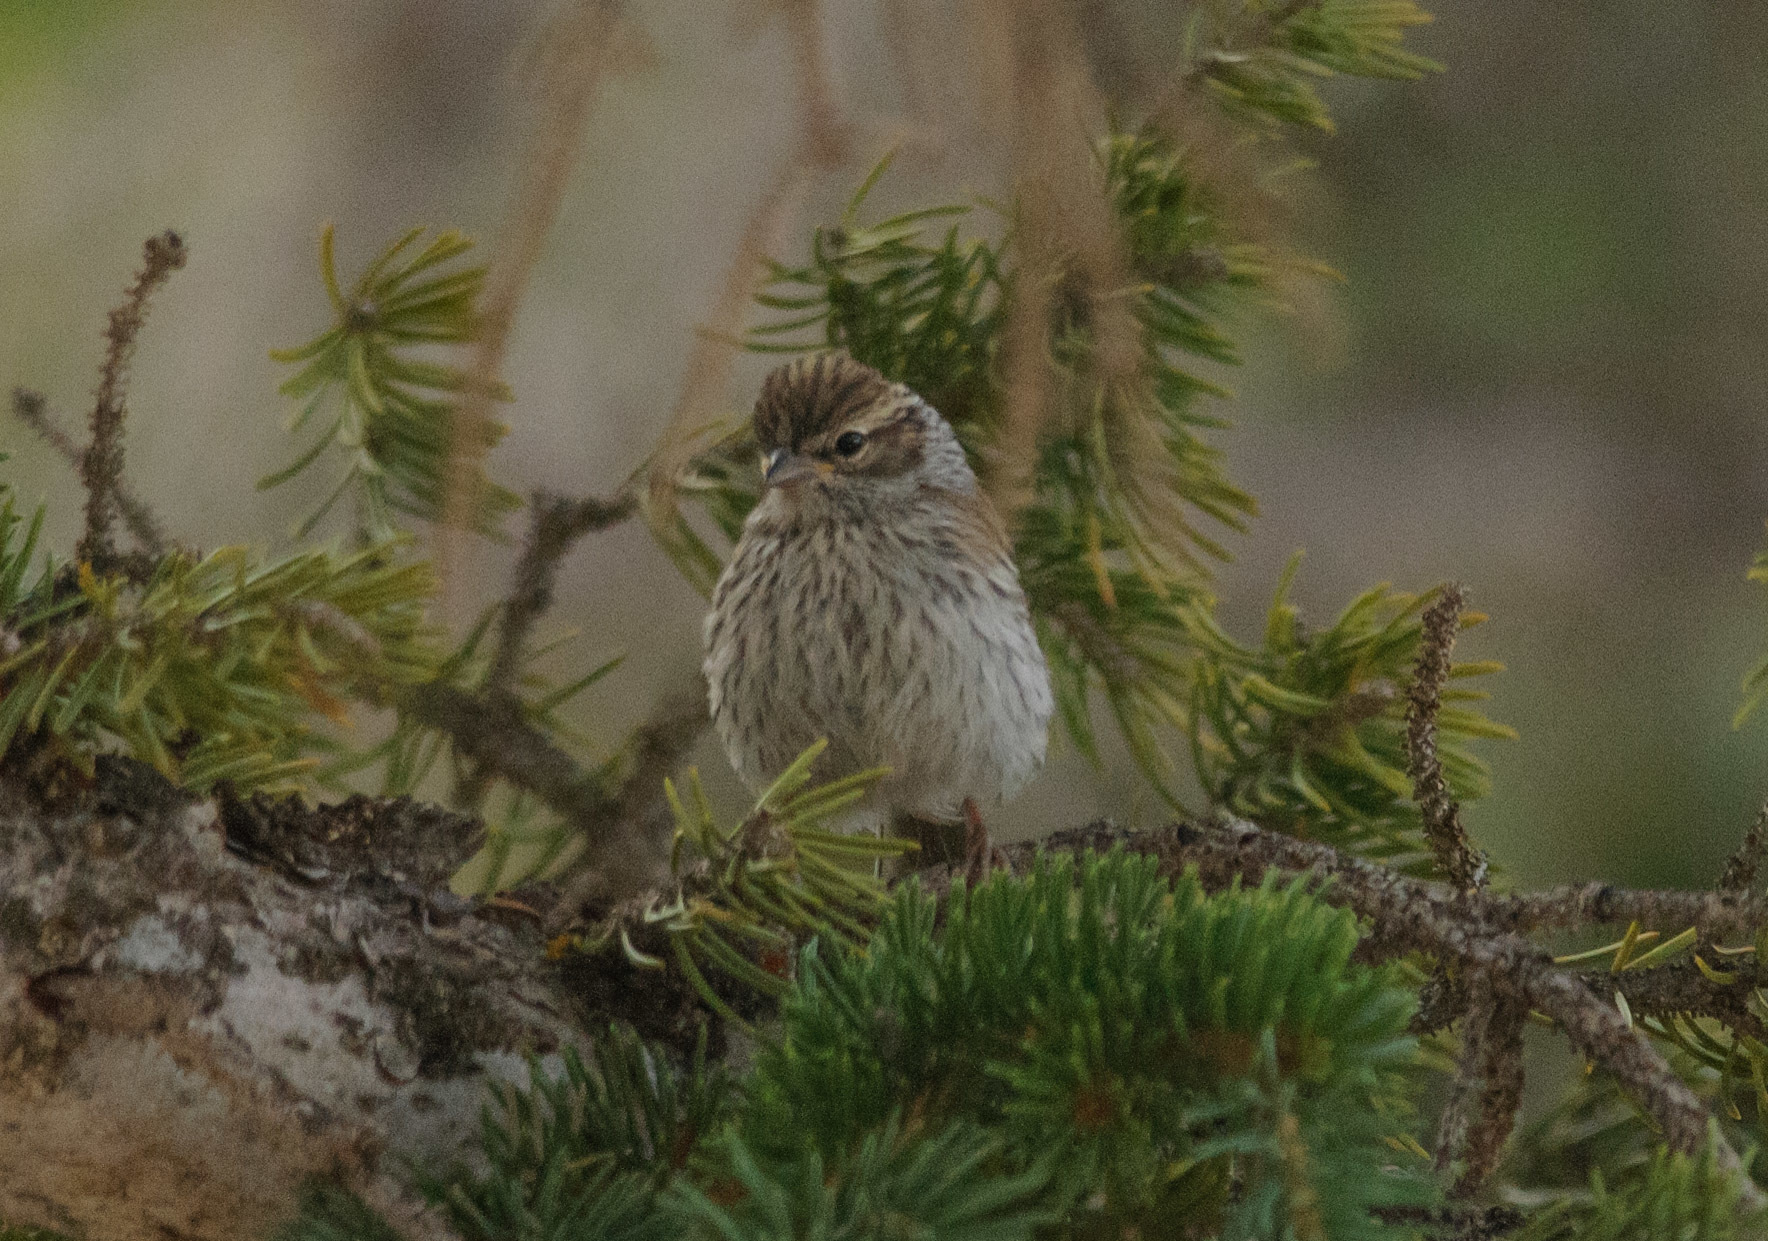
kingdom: Animalia
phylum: Chordata
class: Aves
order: Passeriformes
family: Passerellidae
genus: Spizella
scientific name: Spizella passerina
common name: Chipping sparrow
